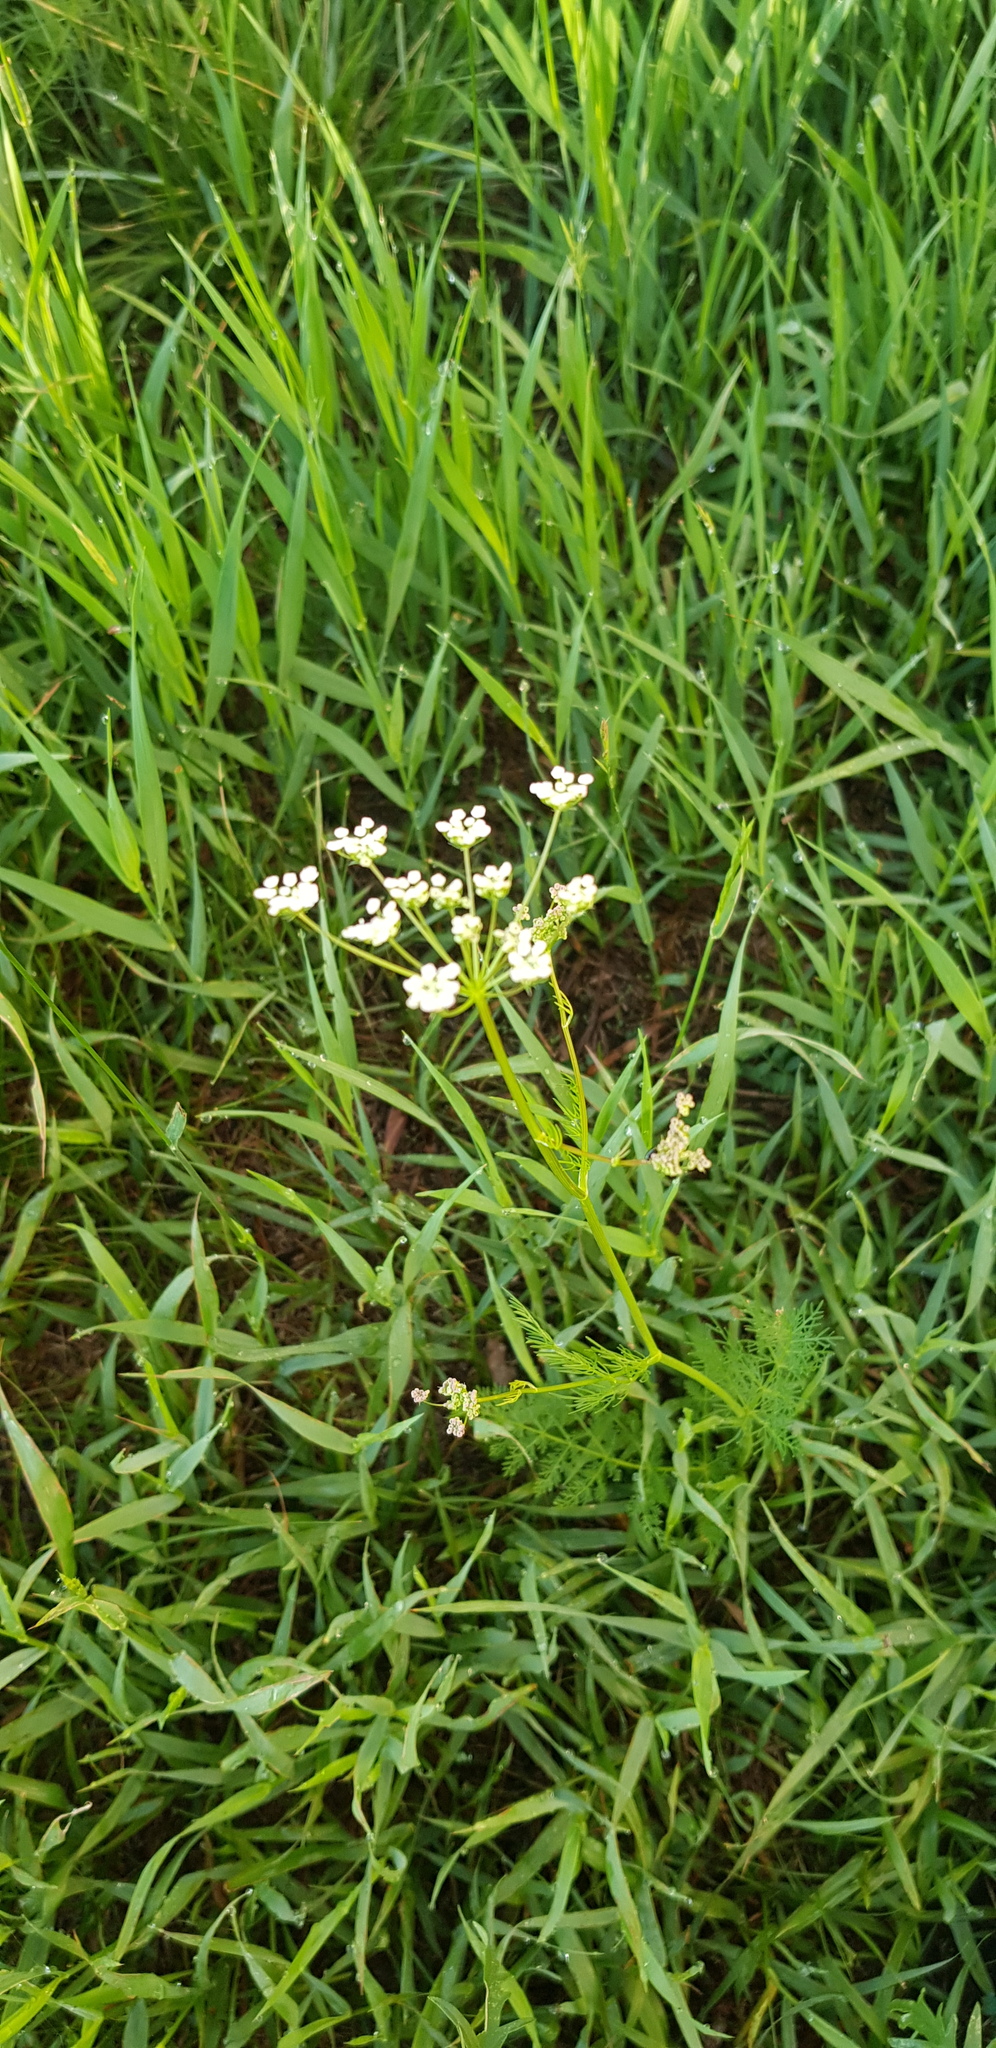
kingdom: Plantae
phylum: Tracheophyta
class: Magnoliopsida
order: Apiales
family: Apiaceae
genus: Carum
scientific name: Carum carvi
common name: Caraway
